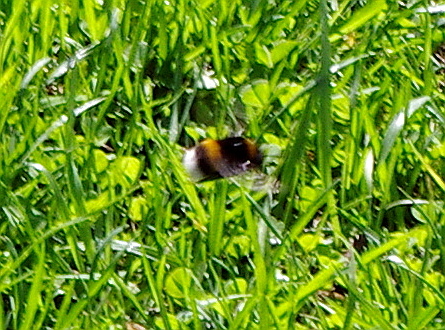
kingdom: Animalia
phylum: Arthropoda
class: Insecta
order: Hymenoptera
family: Apidae
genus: Bombus
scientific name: Bombus terrestris
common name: Buff-tailed bumblebee
